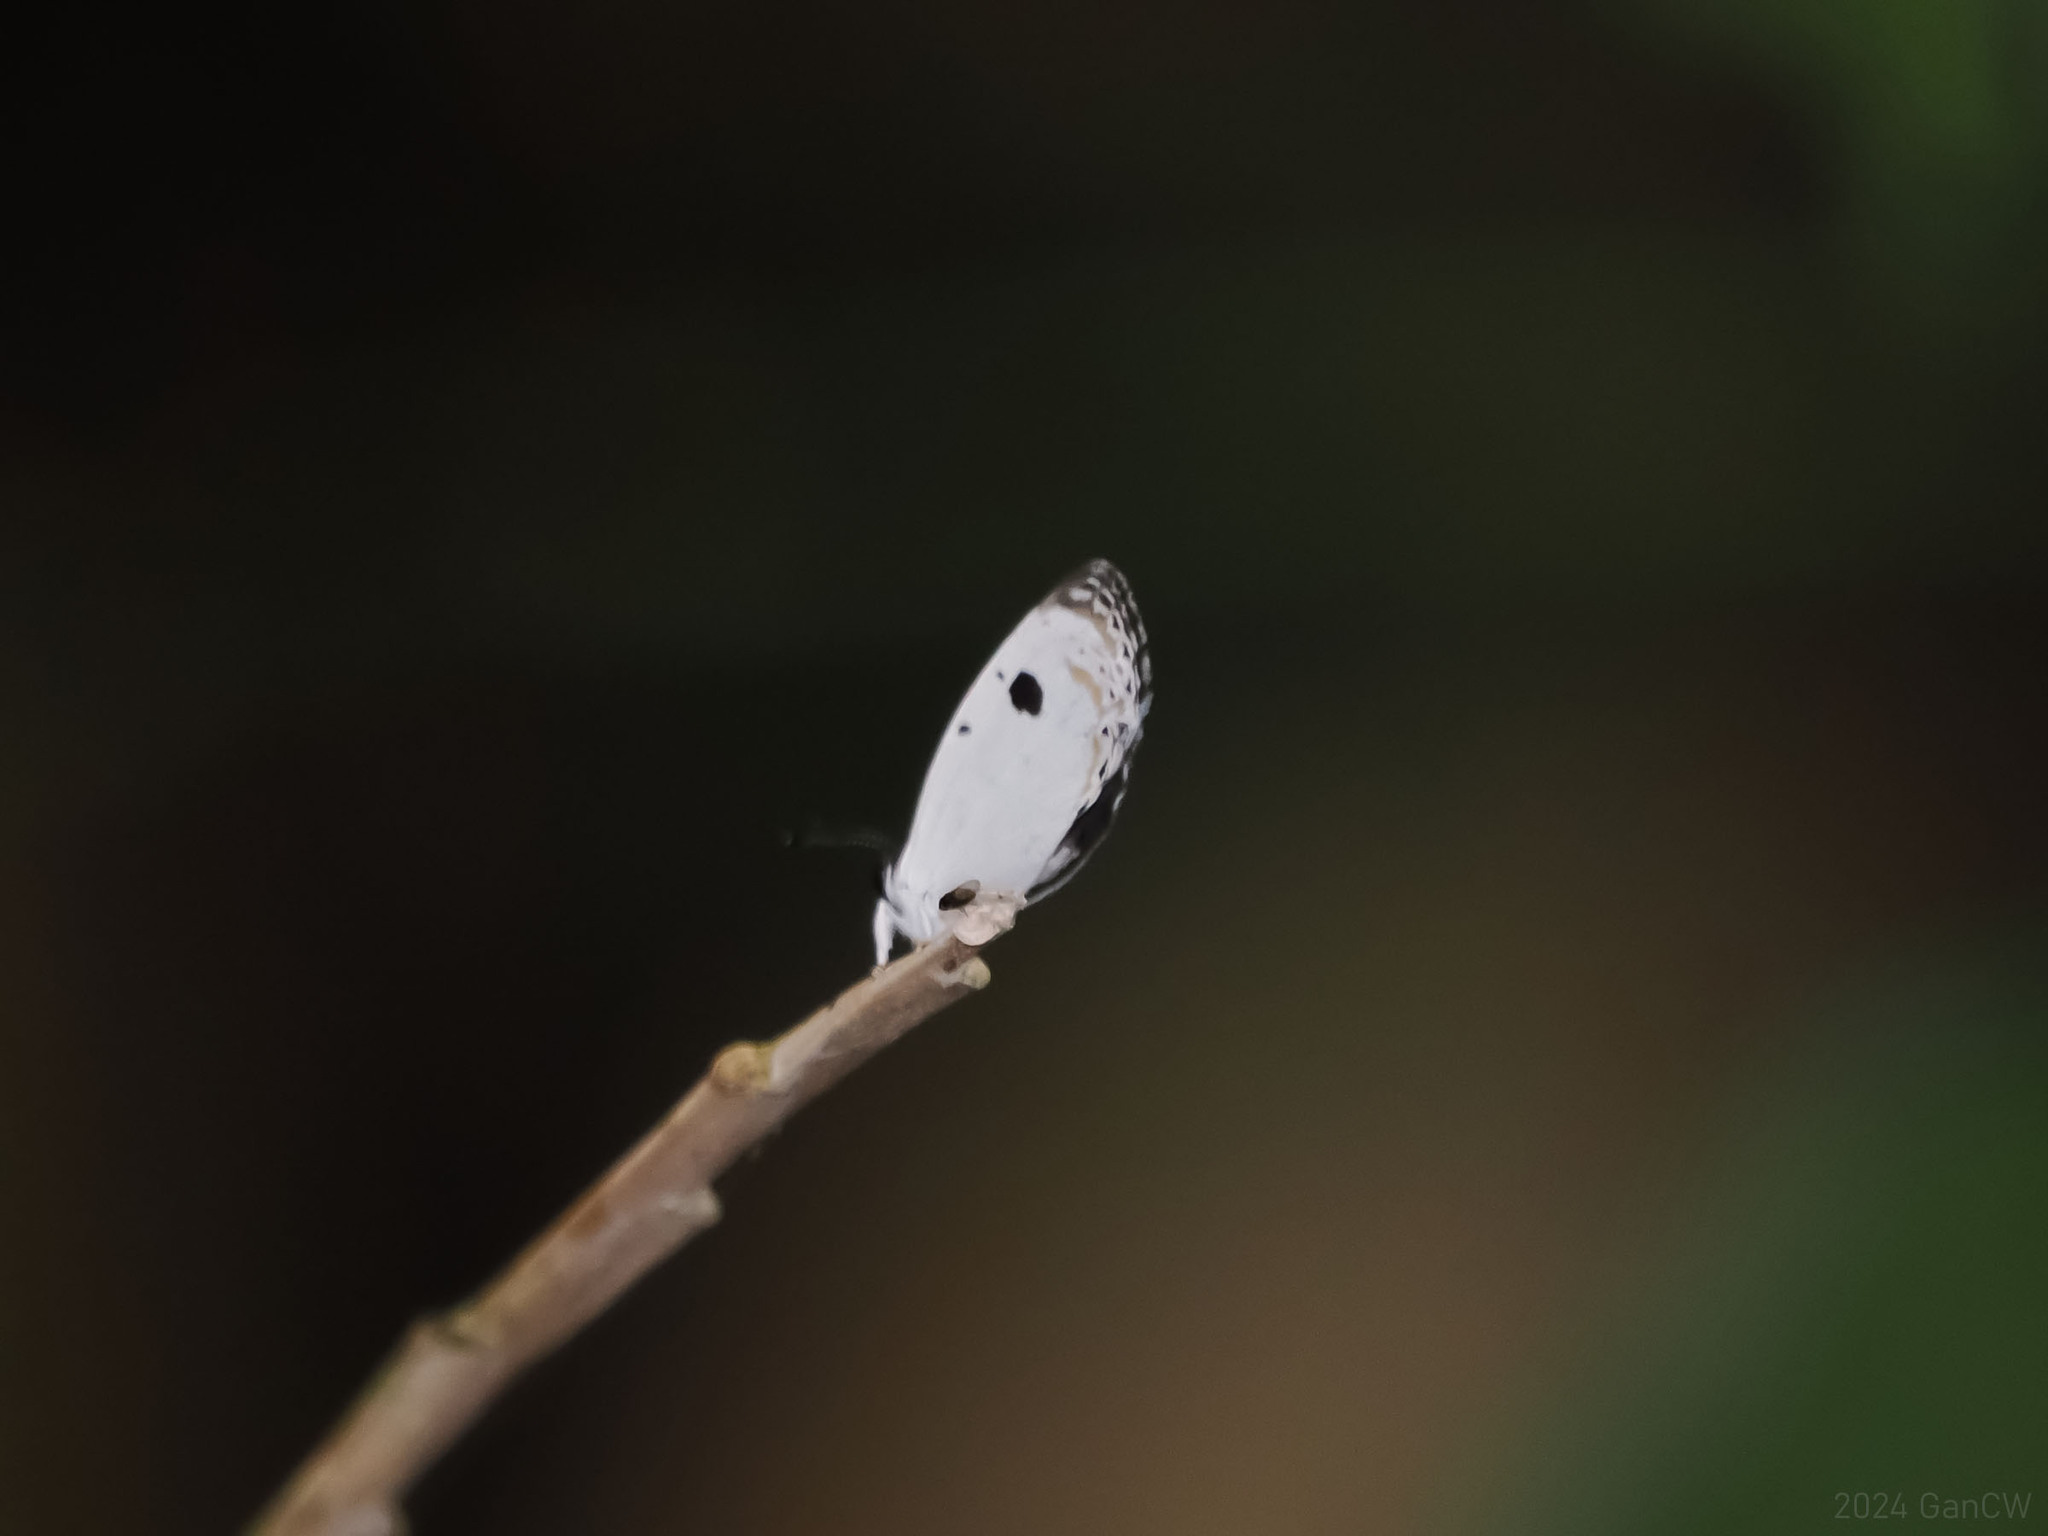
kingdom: Animalia
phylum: Arthropoda
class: Insecta
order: Lepidoptera
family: Lycaenidae
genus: Pithecops
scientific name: Pithecops corvus
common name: Forest quaker
